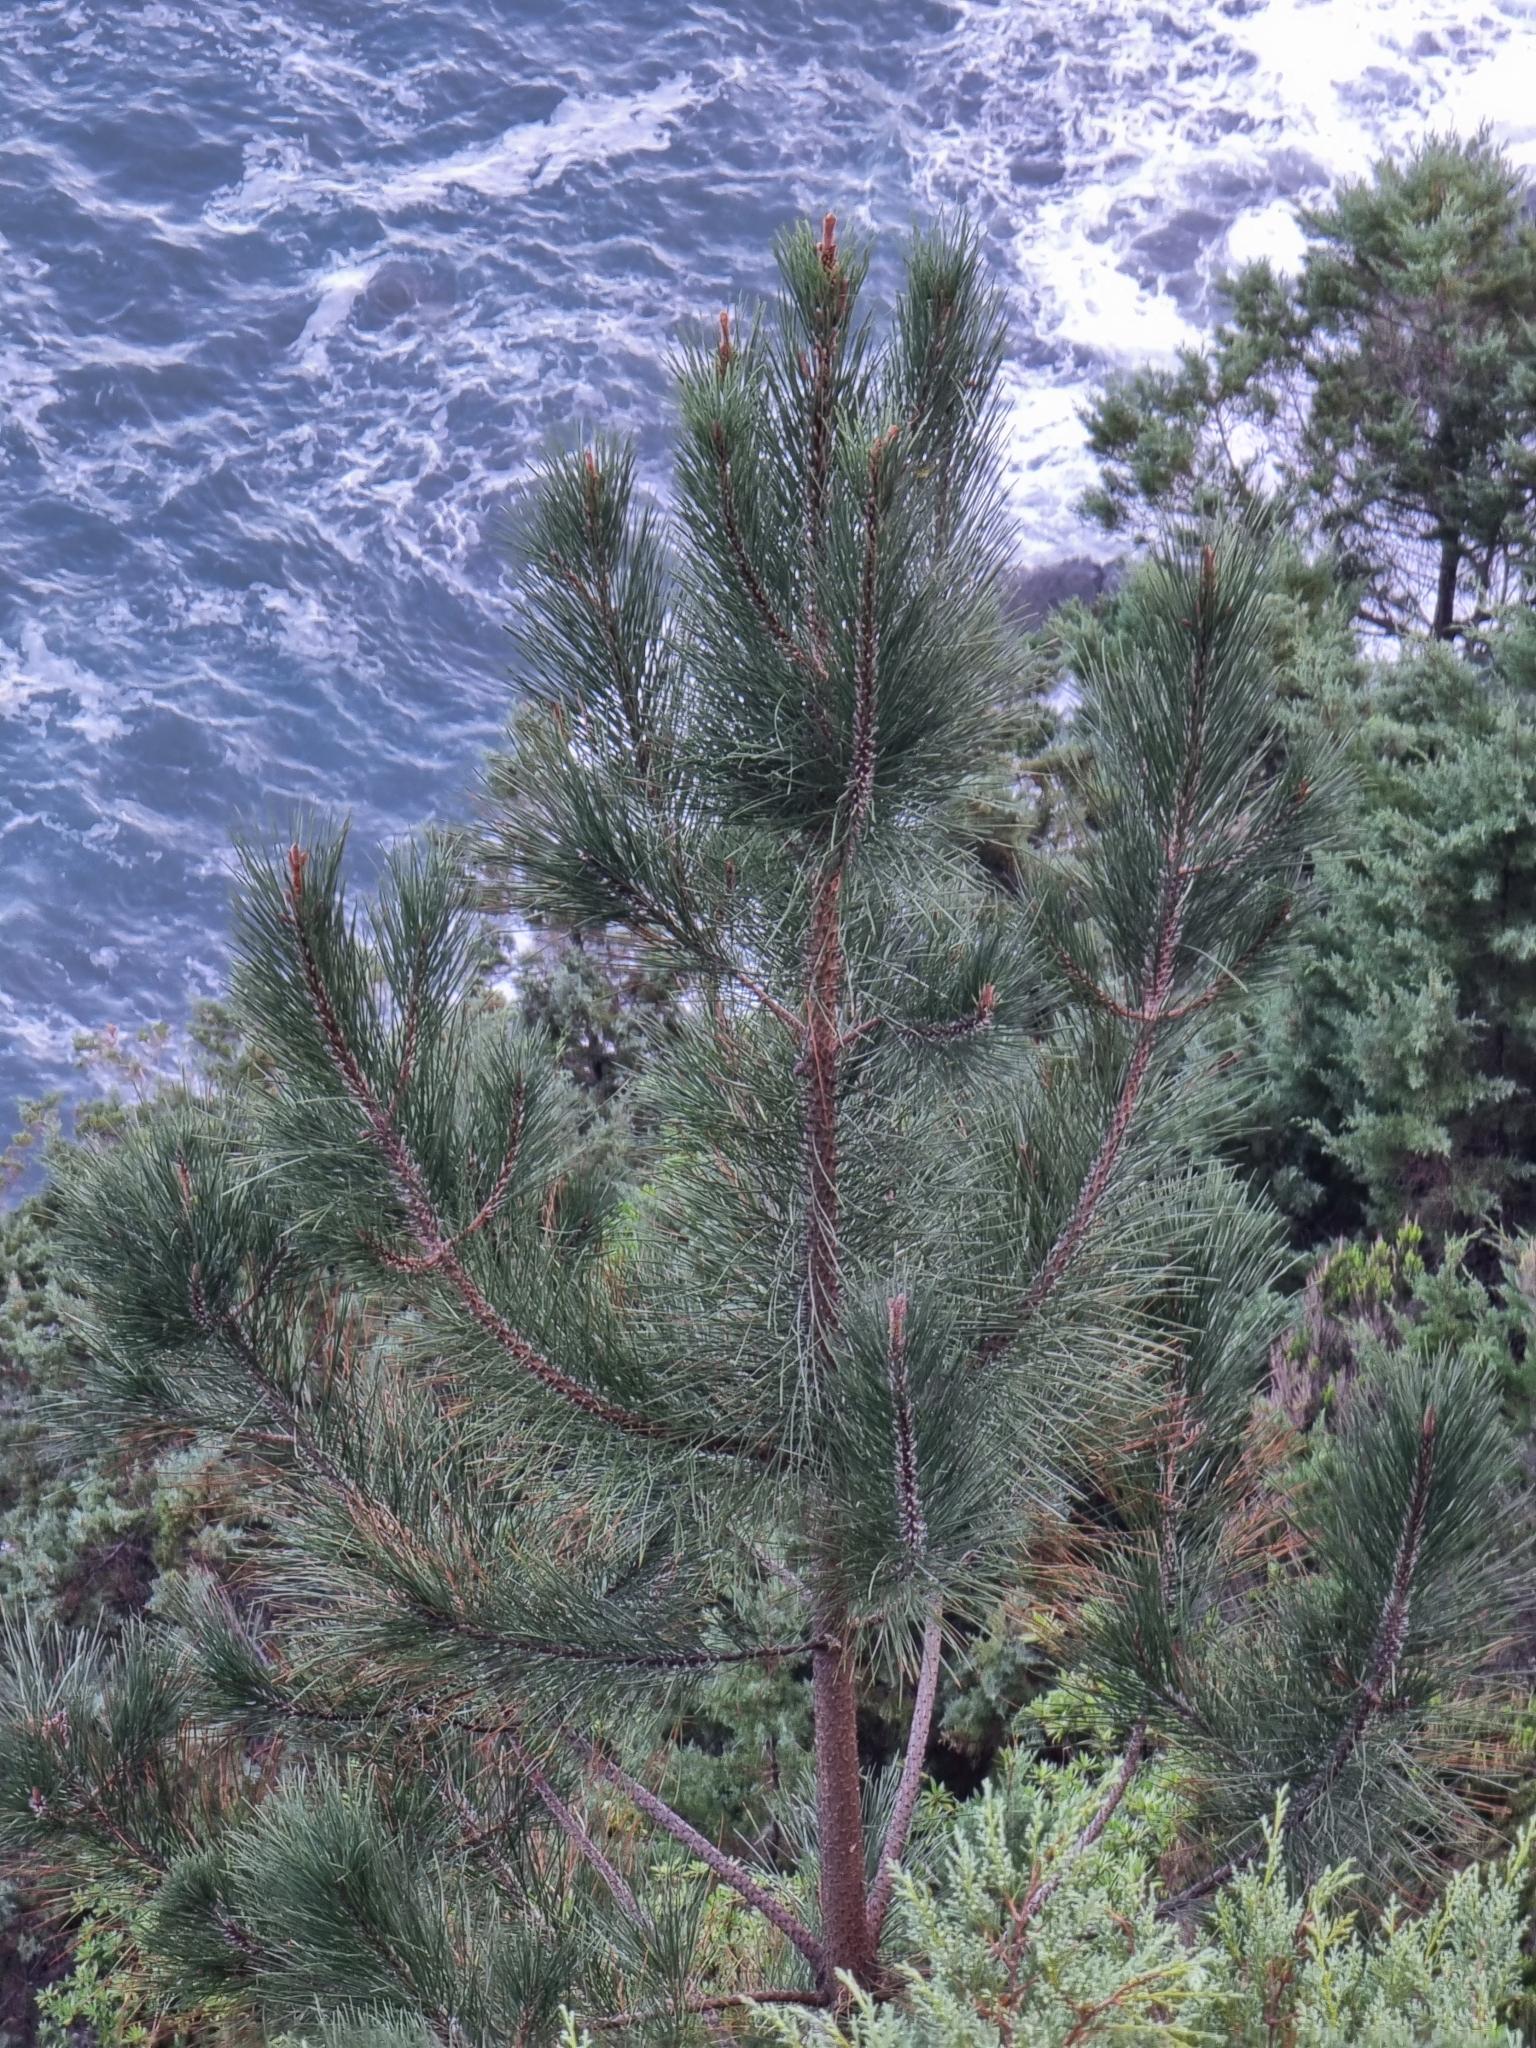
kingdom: Plantae
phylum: Tracheophyta
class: Pinopsida
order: Pinales
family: Pinaceae
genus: Pinus
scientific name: Pinus pinaster
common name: Maritime pine
